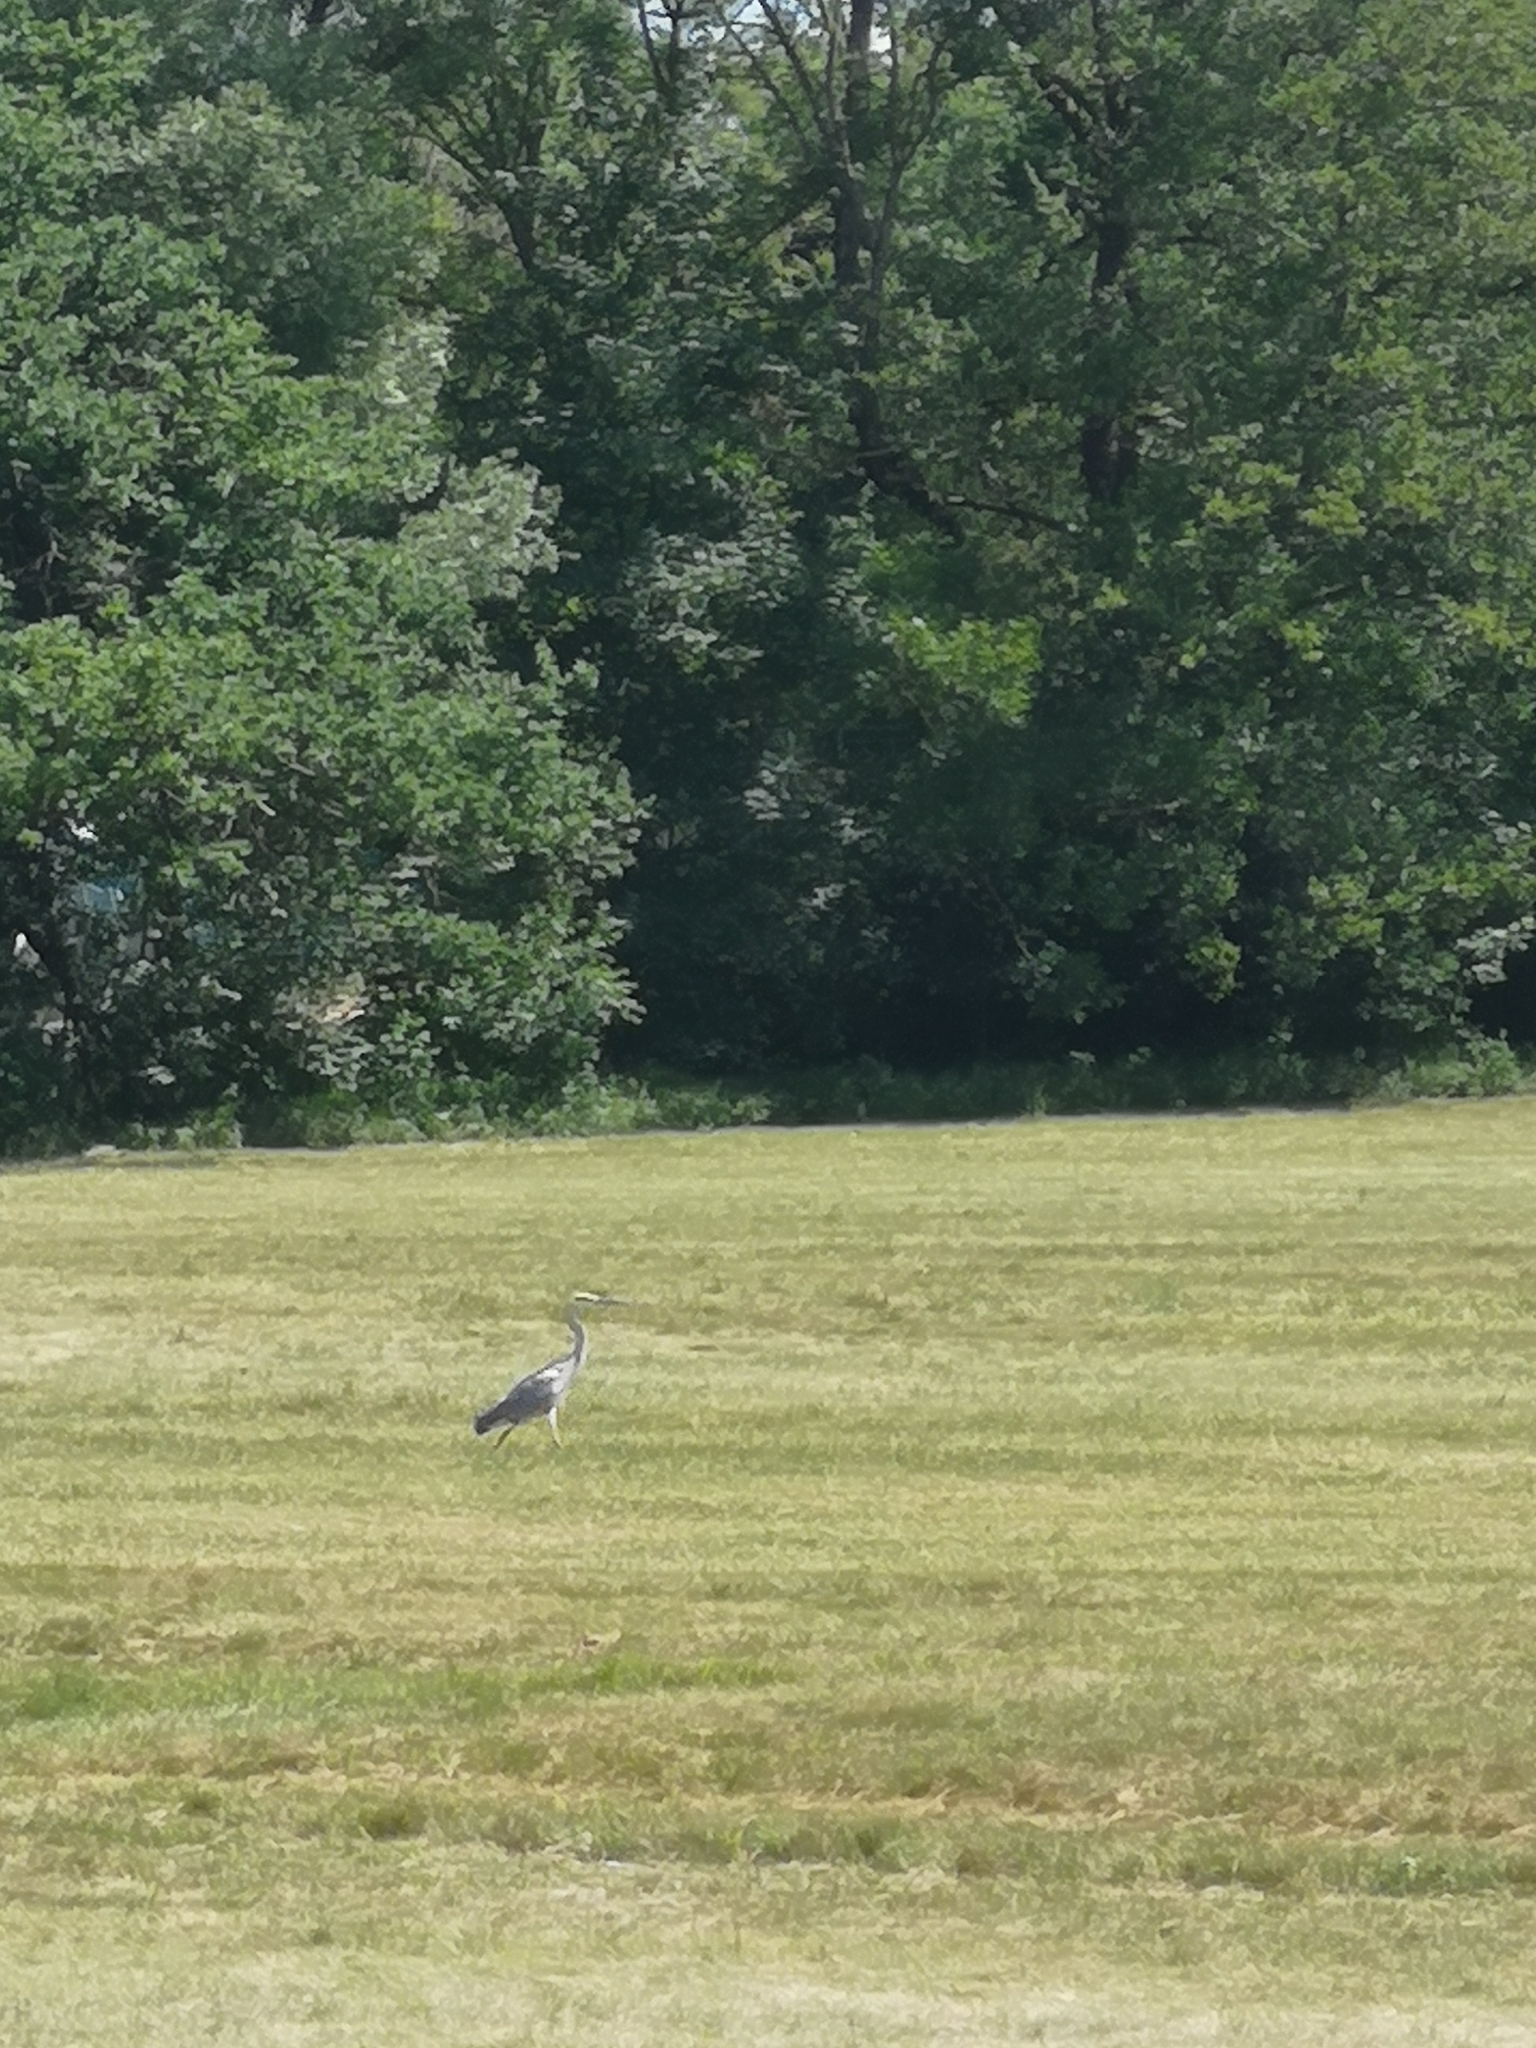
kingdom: Animalia
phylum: Chordata
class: Aves
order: Pelecaniformes
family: Ardeidae
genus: Ardea
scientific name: Ardea cinerea
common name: Grey heron
